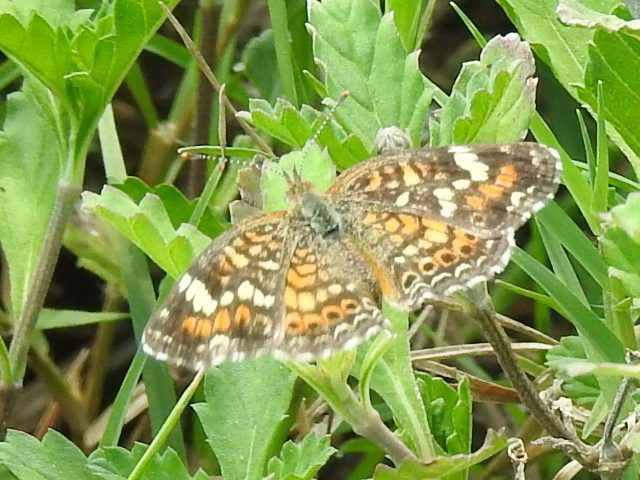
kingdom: Animalia
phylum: Arthropoda
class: Insecta
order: Lepidoptera
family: Nymphalidae
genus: Phyciodes
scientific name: Phyciodes phaon
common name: Phaon crescent
